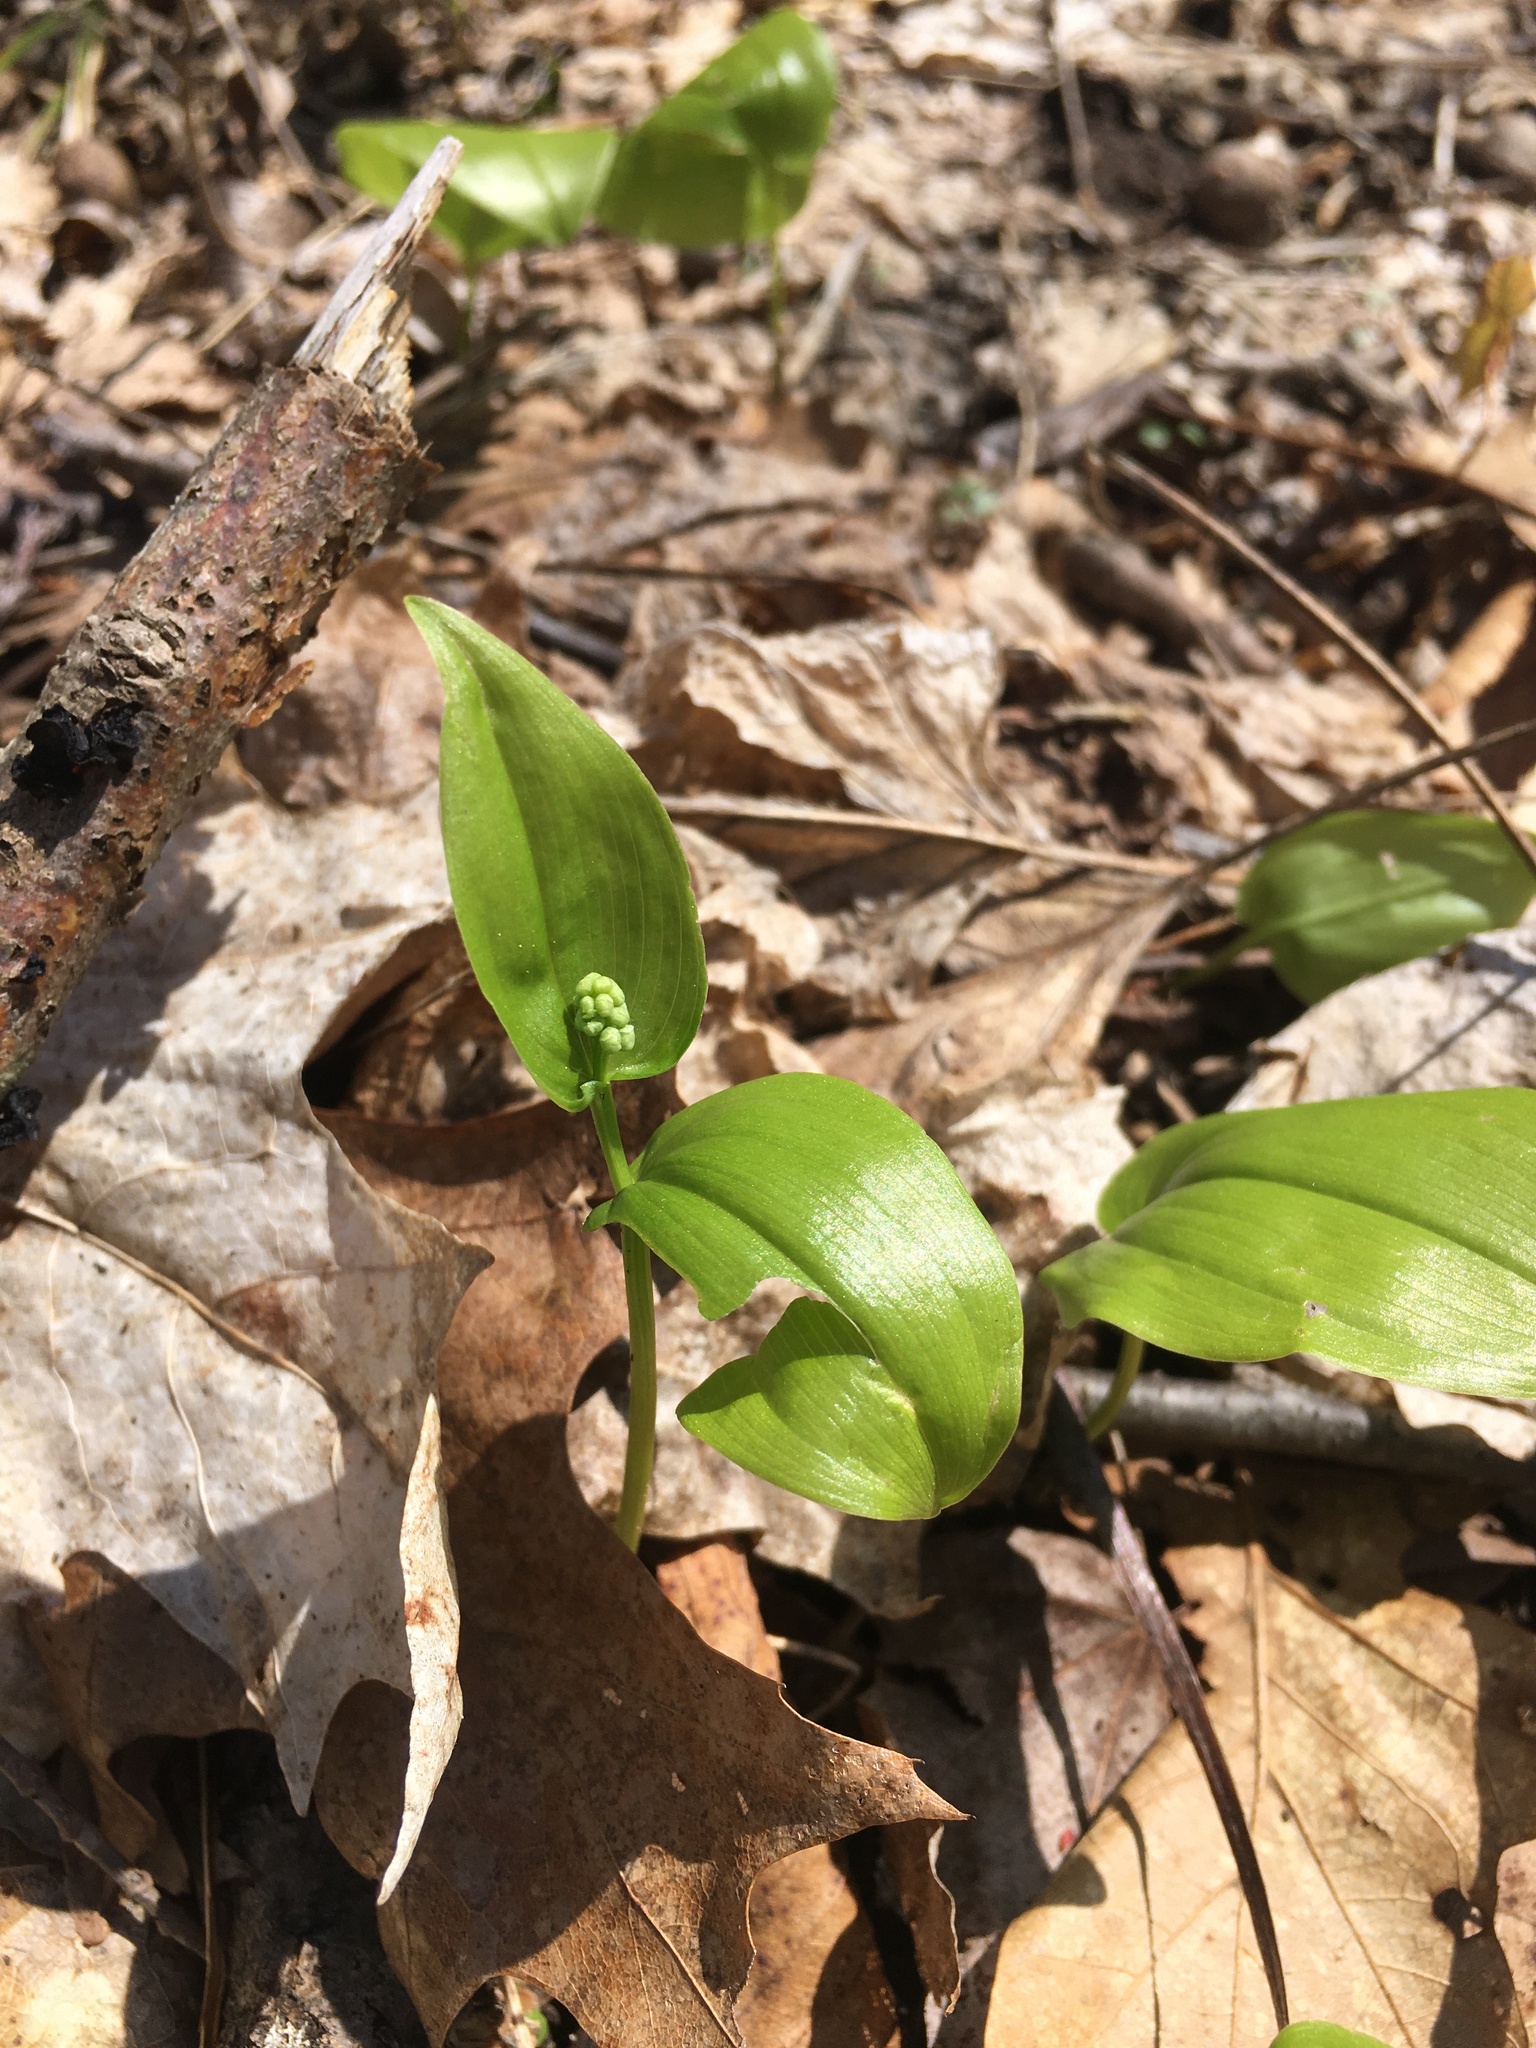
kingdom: Plantae
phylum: Tracheophyta
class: Liliopsida
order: Asparagales
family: Asparagaceae
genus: Maianthemum
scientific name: Maianthemum canadense
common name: False lily-of-the-valley
